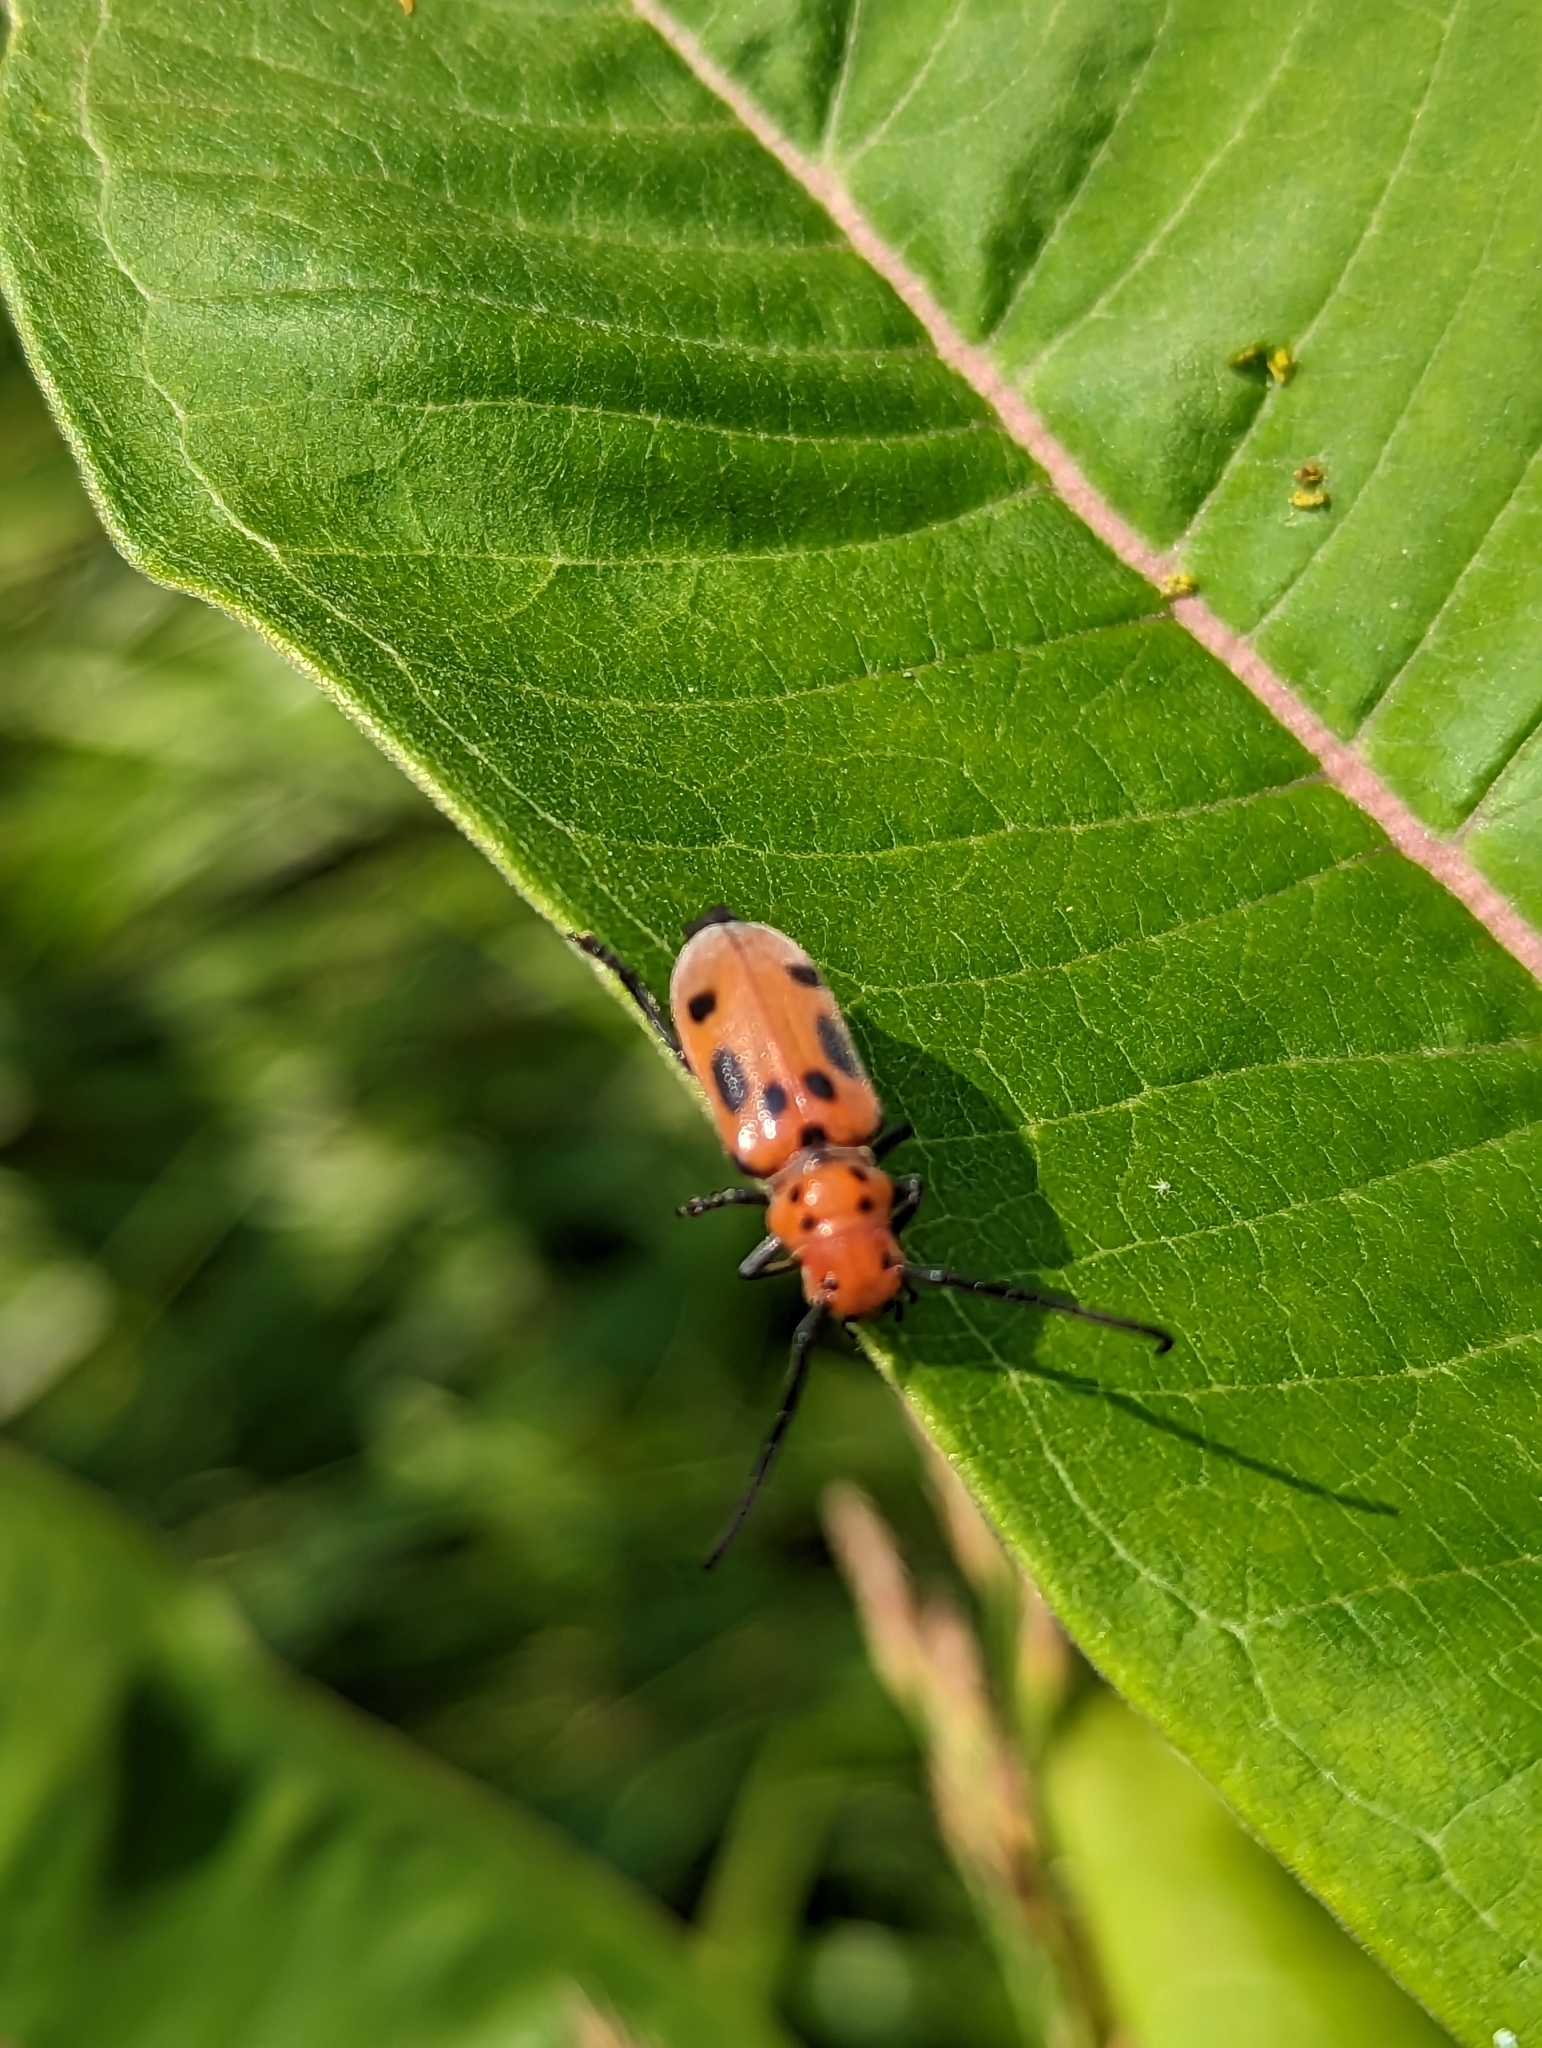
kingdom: Animalia
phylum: Arthropoda
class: Insecta
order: Coleoptera
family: Cerambycidae
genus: Tetraopes
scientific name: Tetraopes tetrophthalmus
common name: Red milkweed beetle
